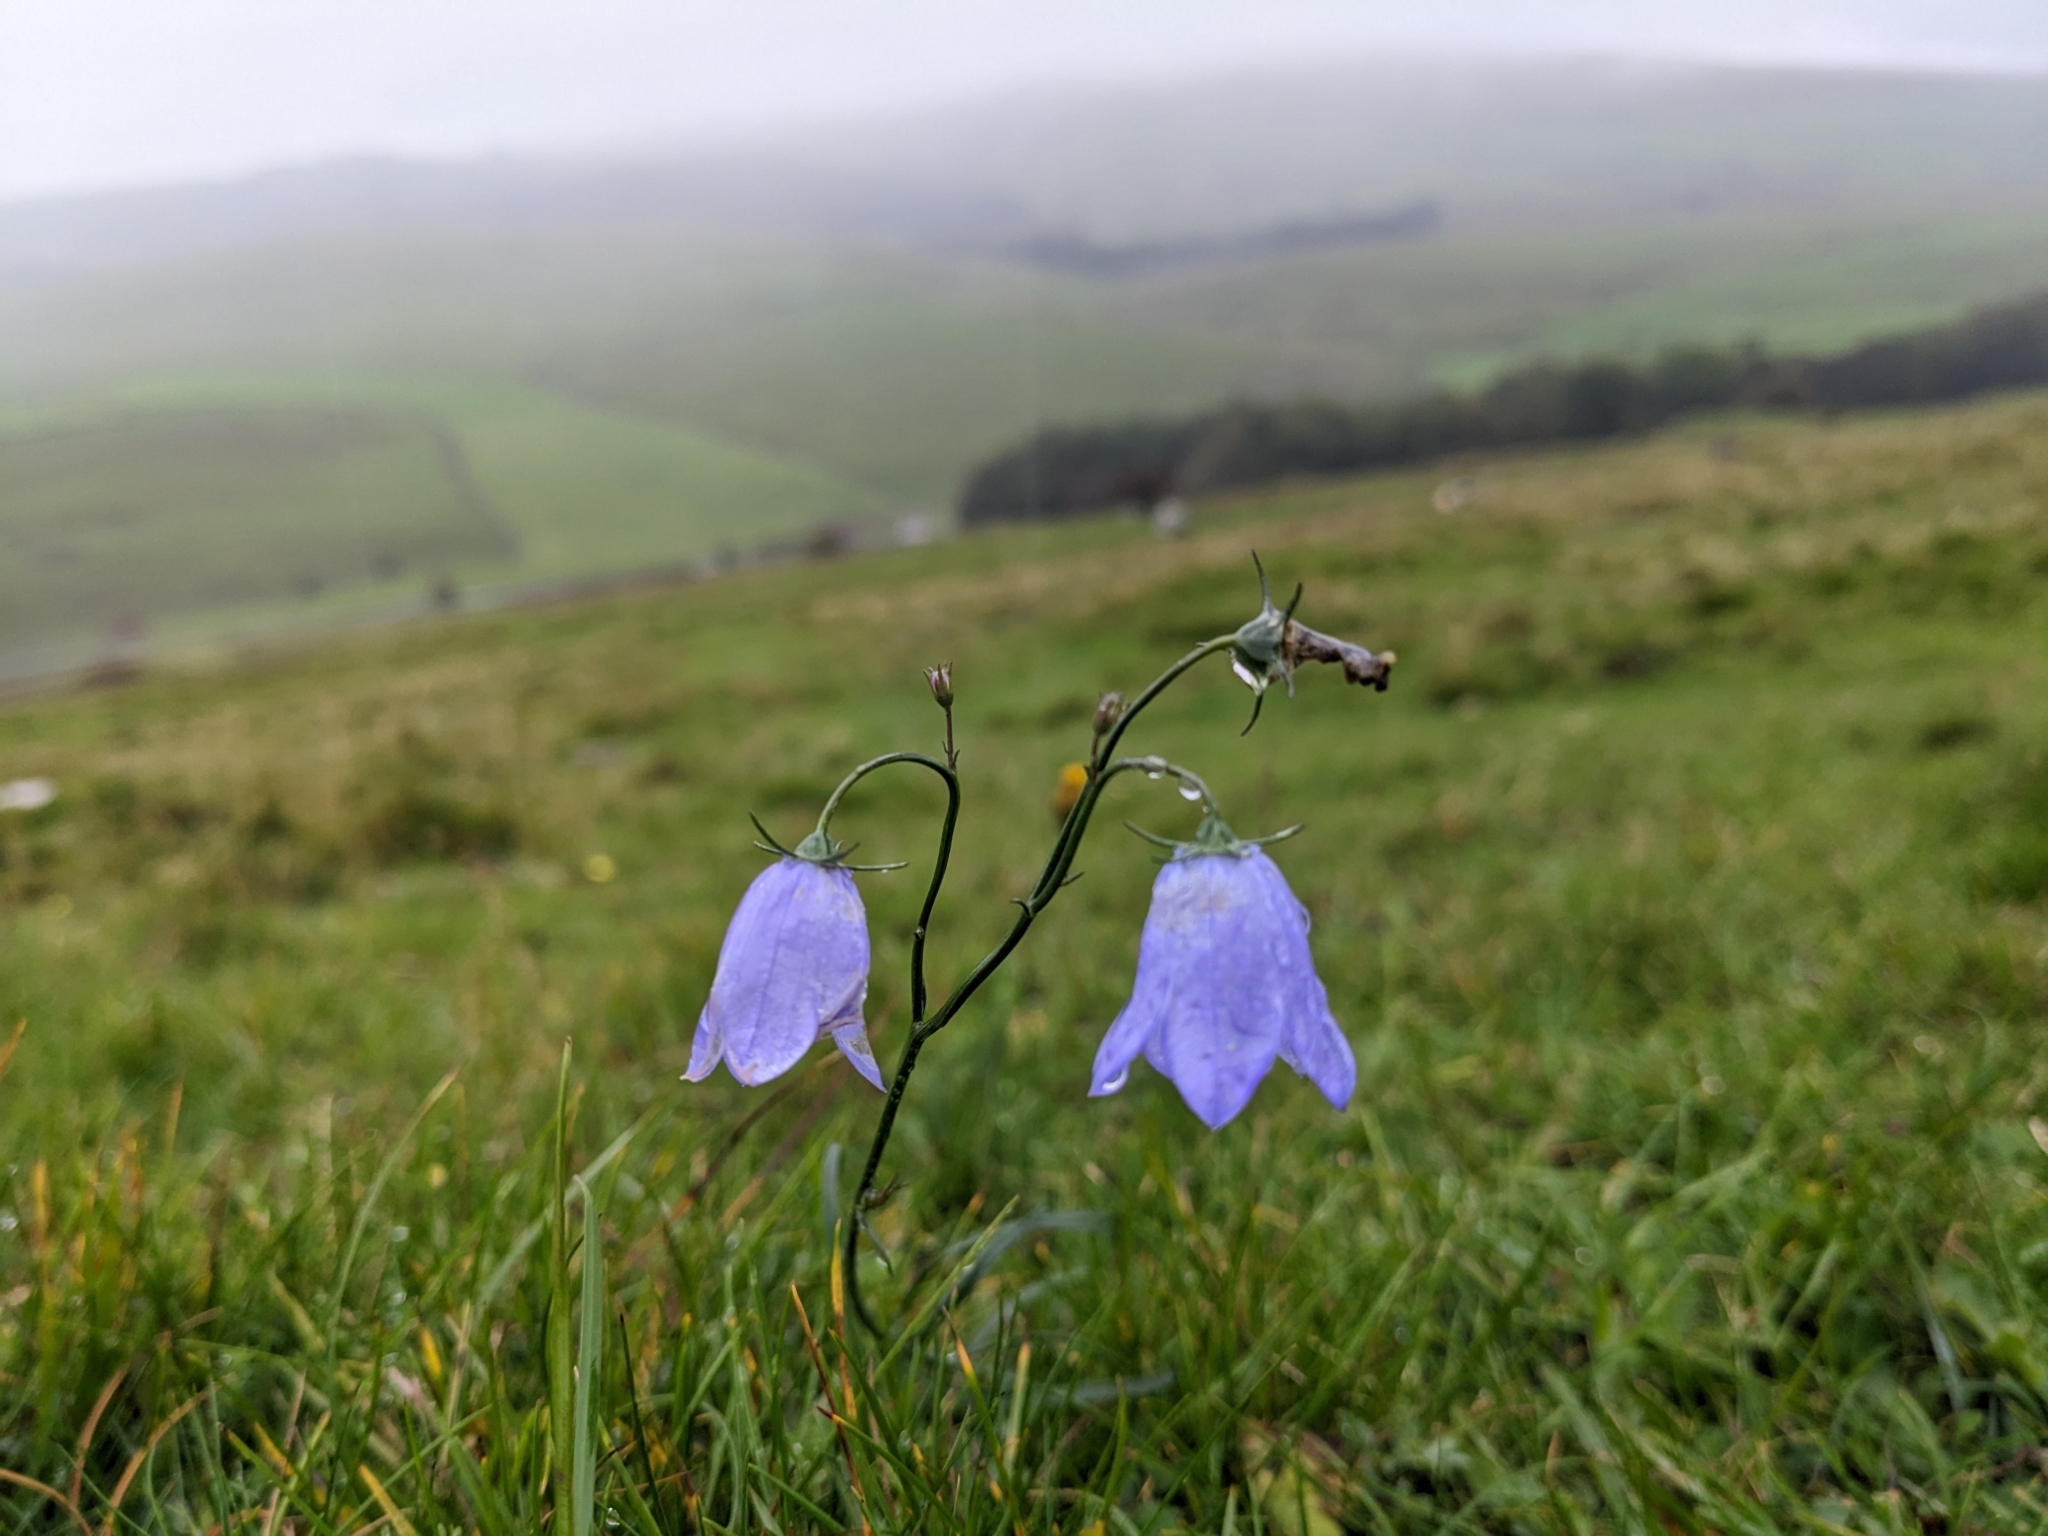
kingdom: Plantae
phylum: Tracheophyta
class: Magnoliopsida
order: Asterales
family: Campanulaceae
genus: Campanula
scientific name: Campanula rotundifolia
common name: Harebell
